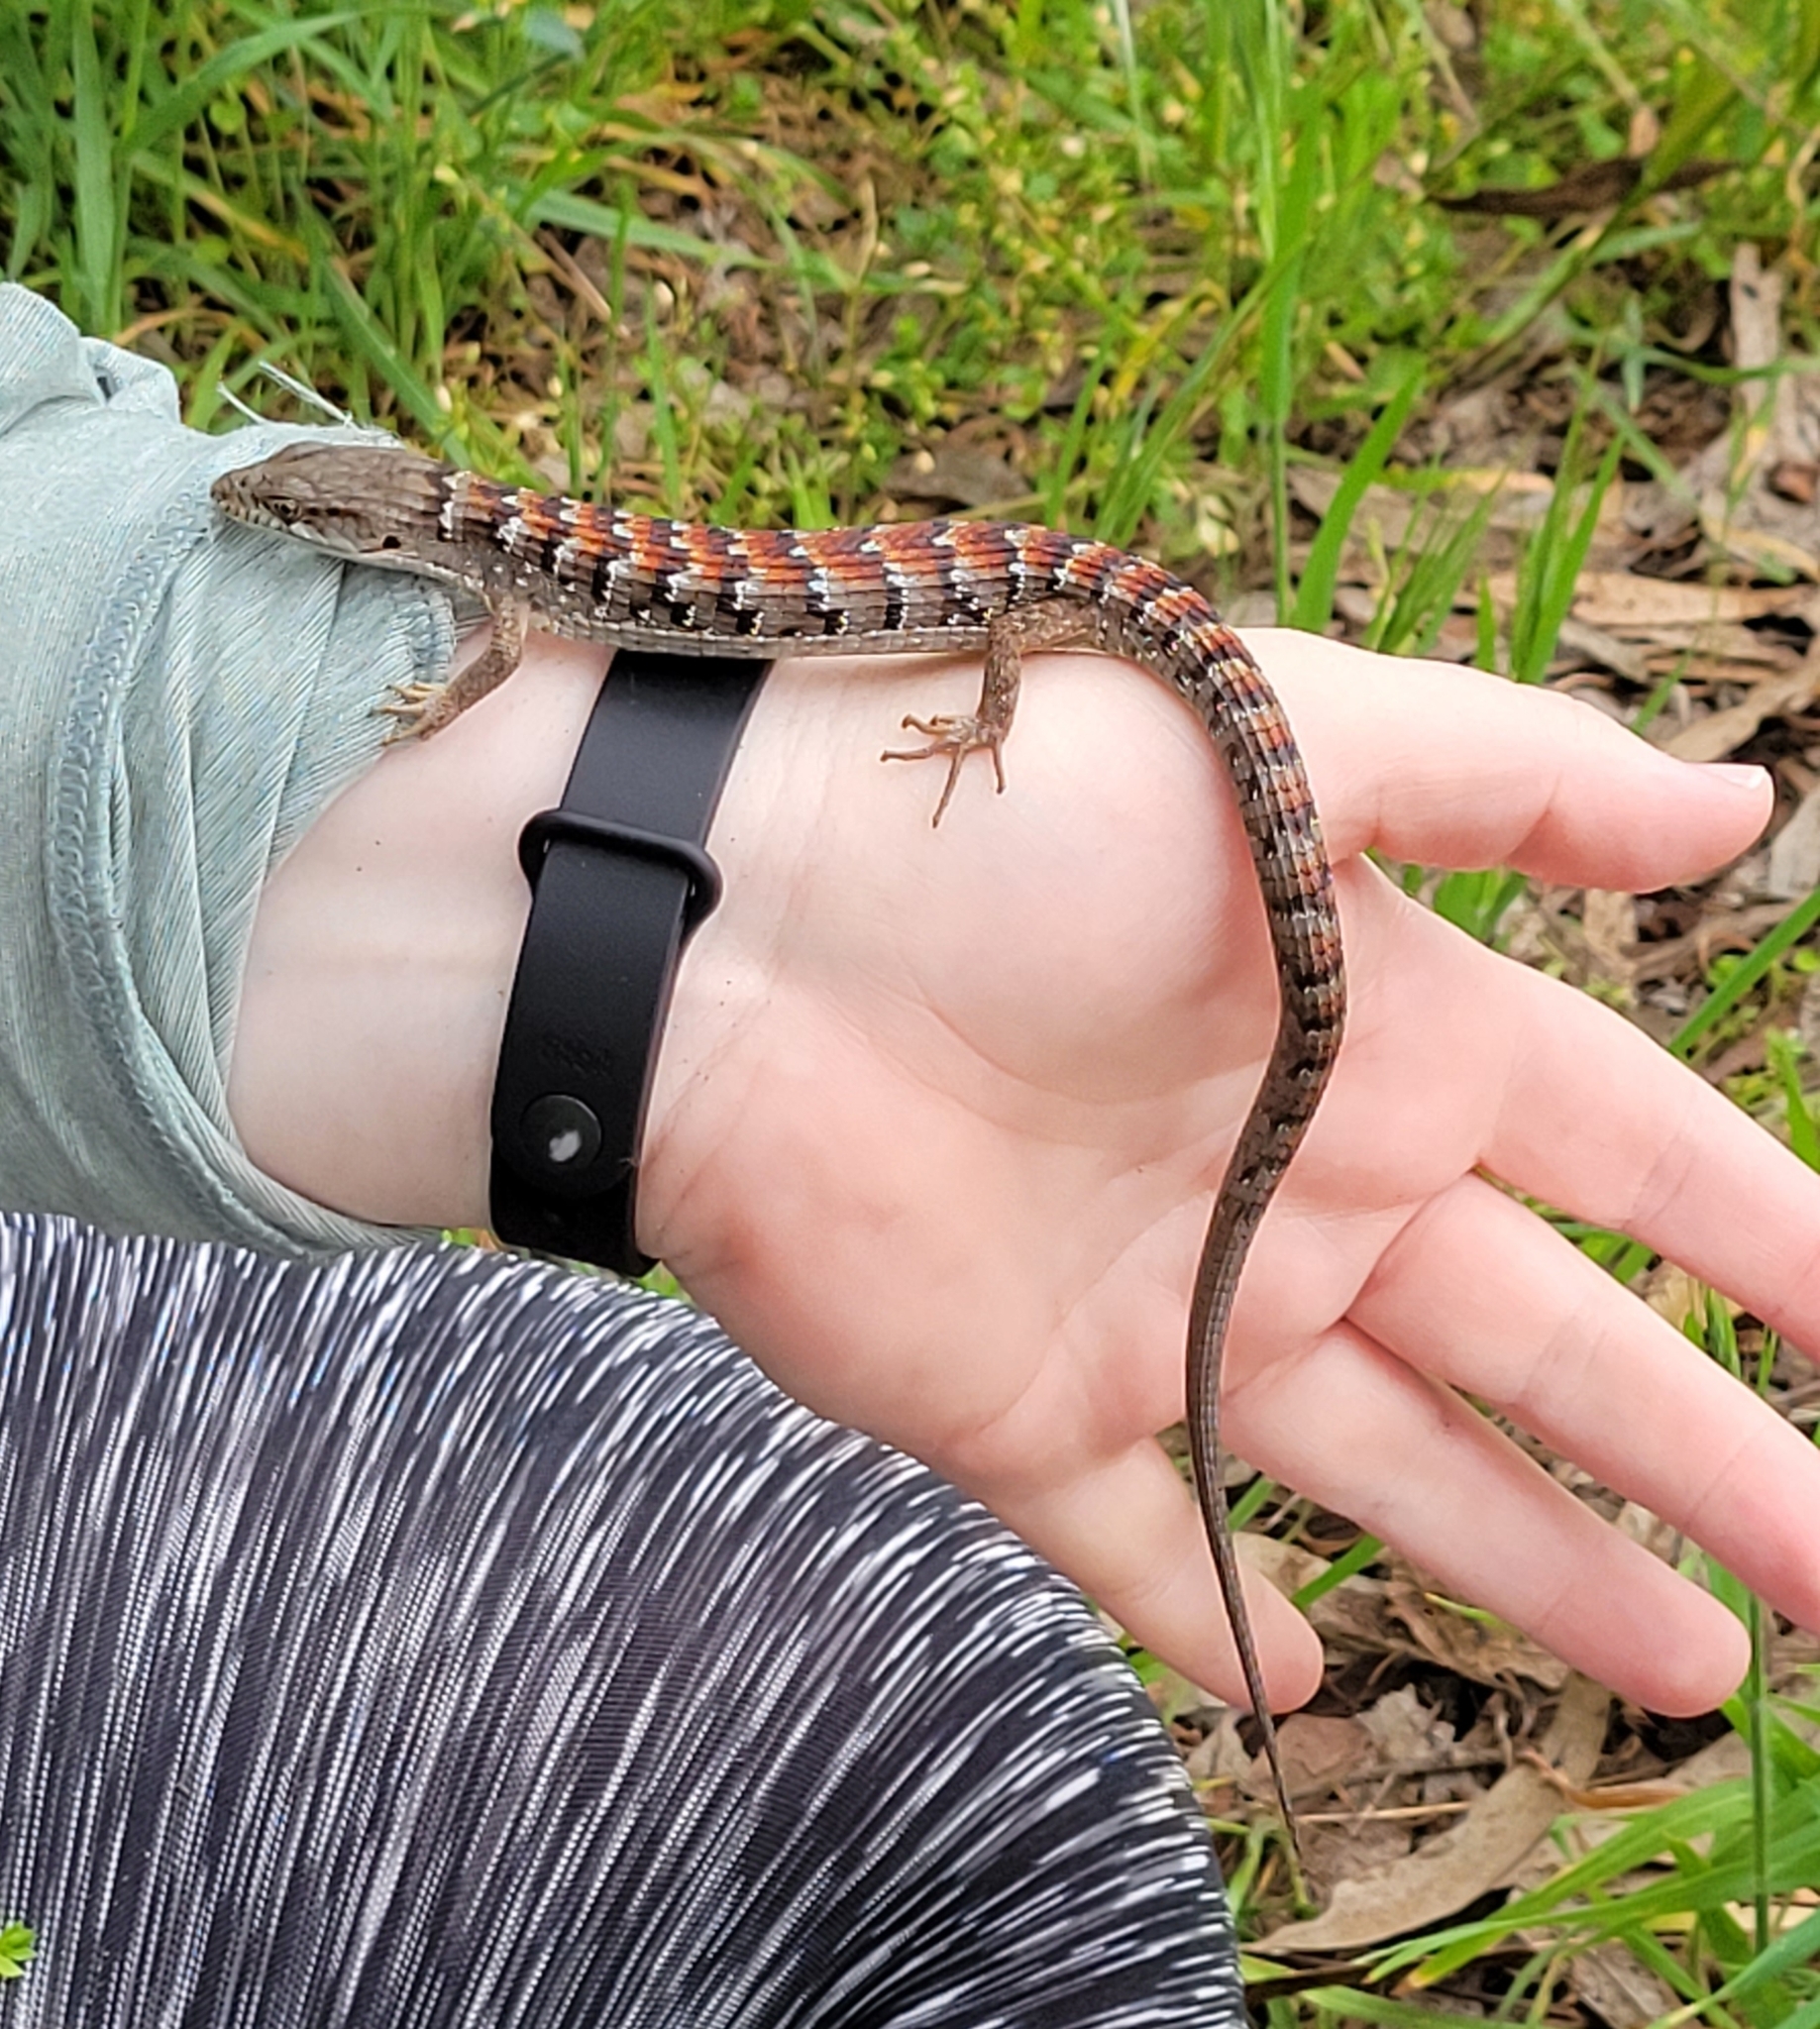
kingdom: Animalia
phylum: Chordata
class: Squamata
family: Anguidae
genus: Elgaria
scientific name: Elgaria multicarinata
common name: Southern alligator lizard
